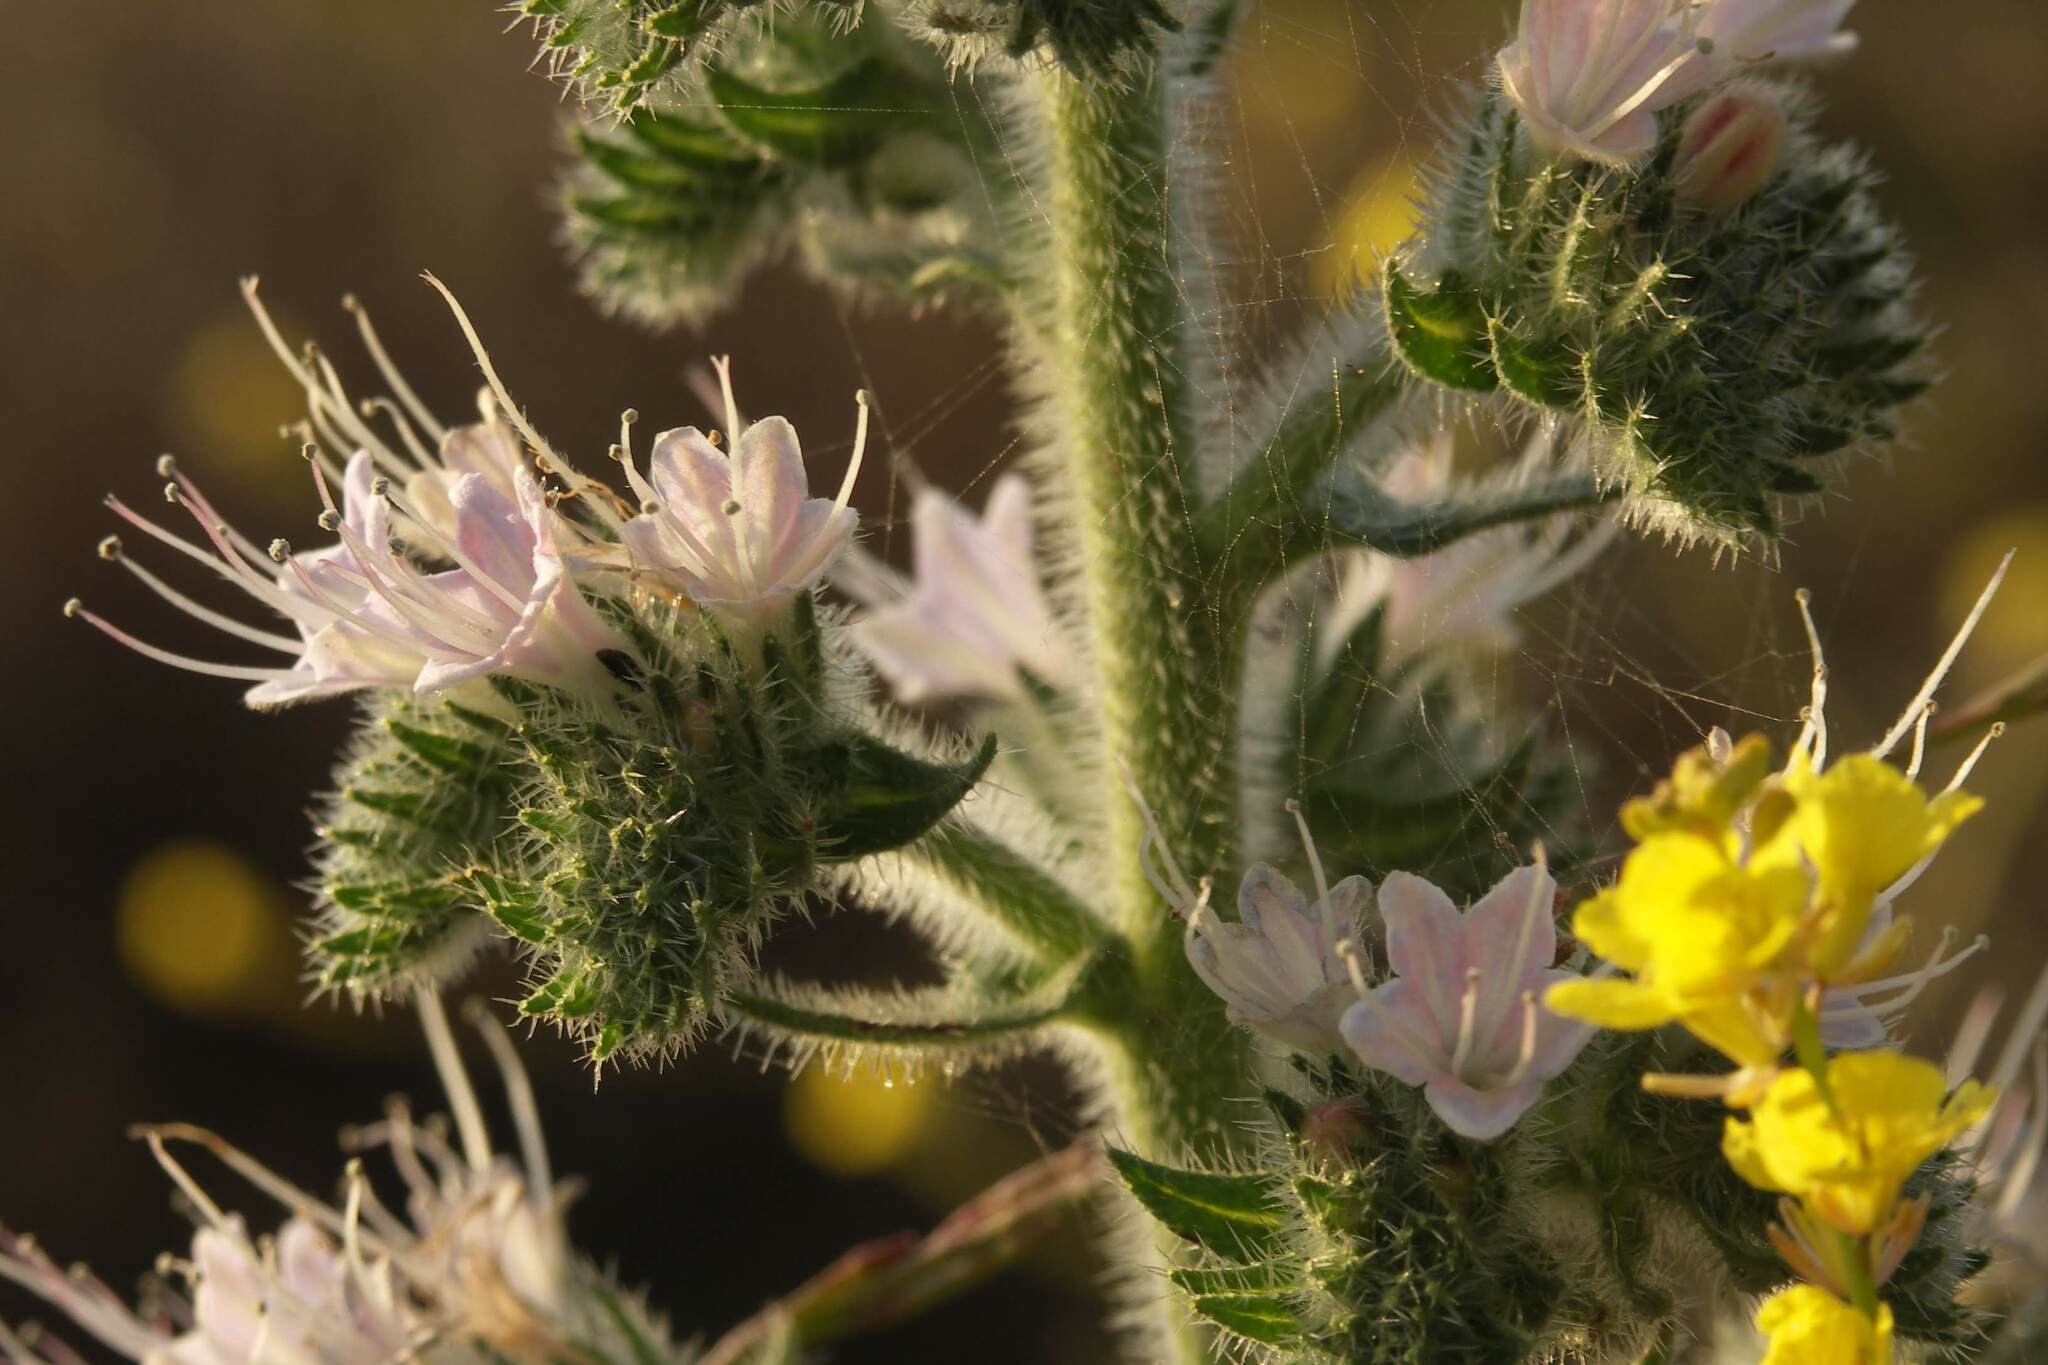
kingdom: Plantae
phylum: Tracheophyta
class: Magnoliopsida
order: Boraginales
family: Boraginaceae
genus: Echium
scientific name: Echium italicum
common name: Italian viper's bugloss
